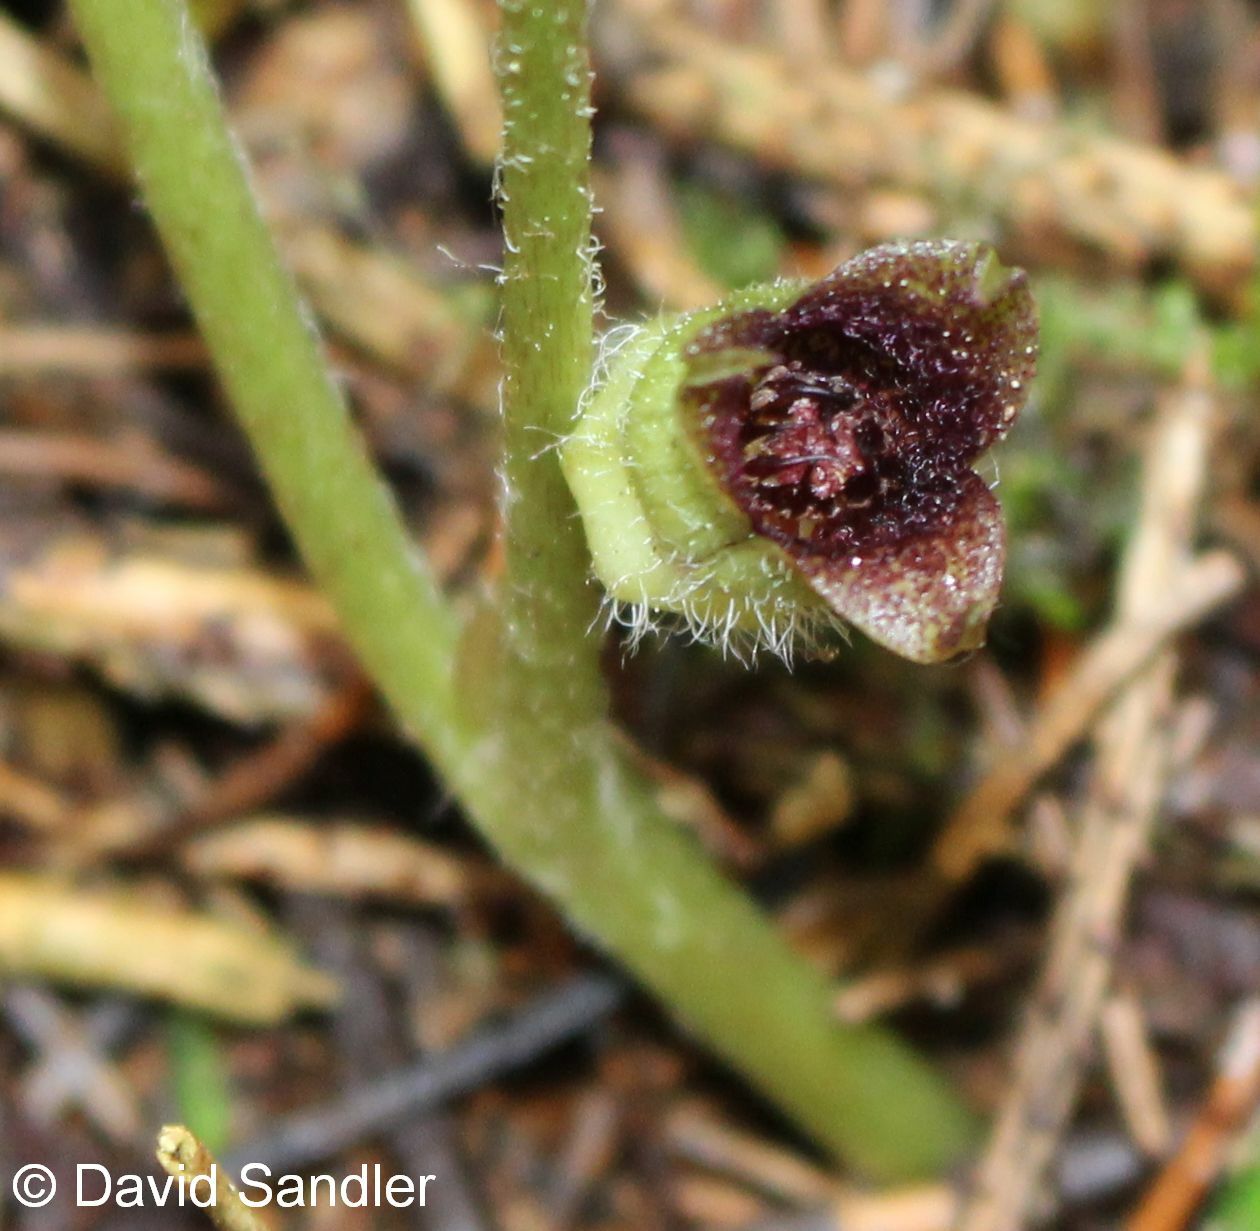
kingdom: Plantae
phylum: Tracheophyta
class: Magnoliopsida
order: Piperales
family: Aristolochiaceae
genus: Asarum
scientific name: Asarum europaeum
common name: Asarabacca
